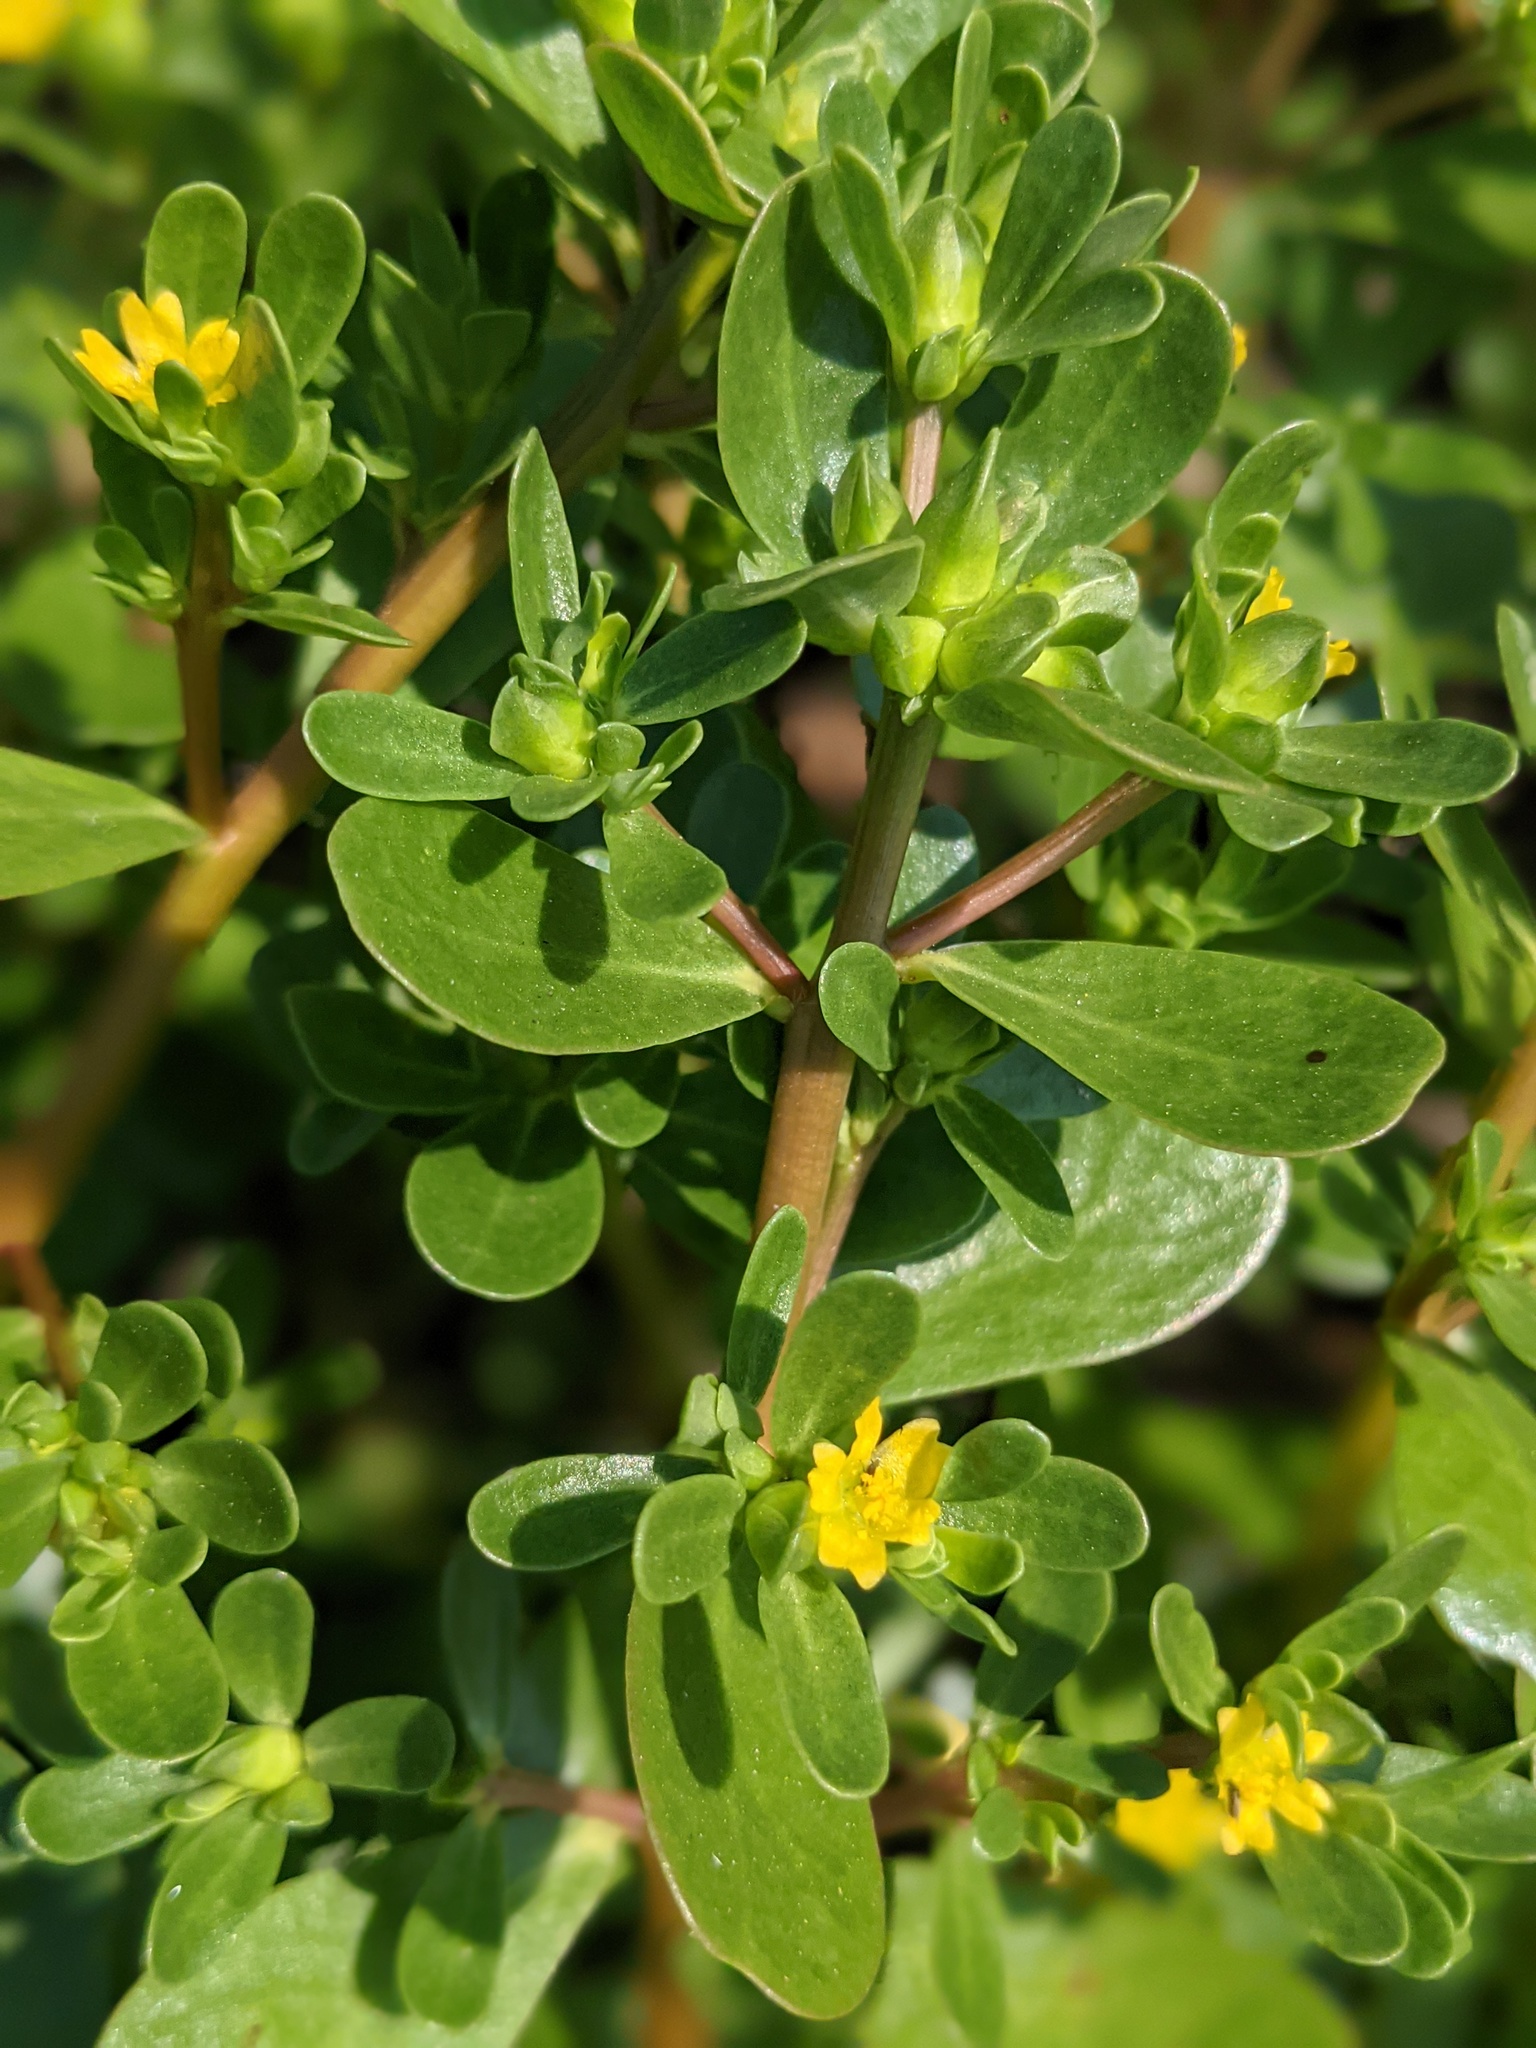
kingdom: Plantae
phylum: Tracheophyta
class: Magnoliopsida
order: Caryophyllales
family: Portulacaceae
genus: Portulaca
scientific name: Portulaca oleracea
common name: Common purslane
